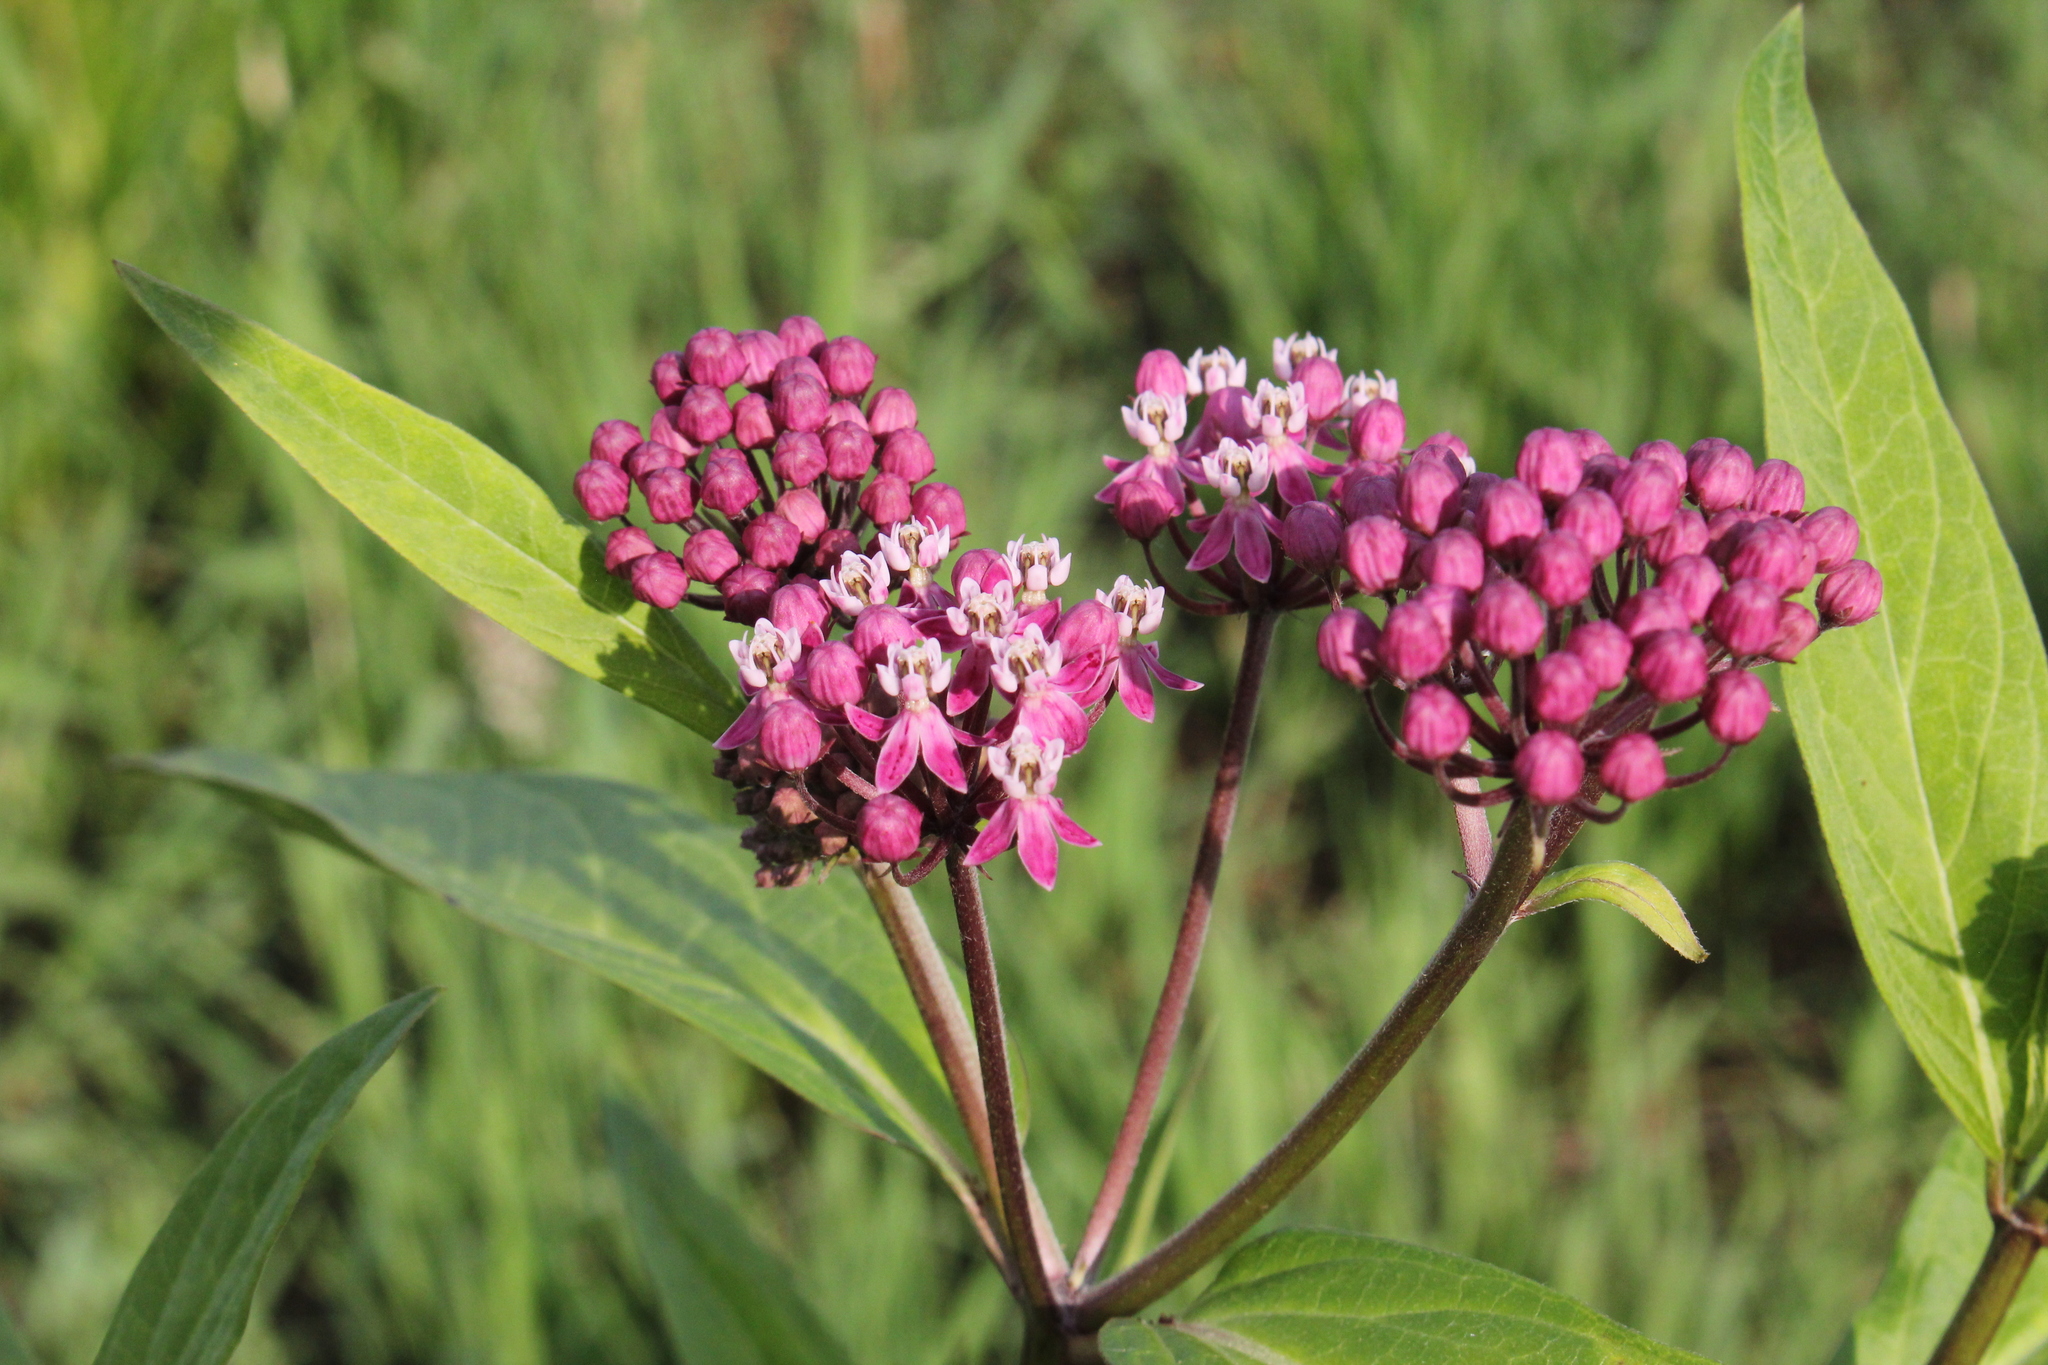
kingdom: Plantae
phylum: Tracheophyta
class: Magnoliopsida
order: Gentianales
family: Apocynaceae
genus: Asclepias
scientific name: Asclepias incarnata
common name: Swamp milkweed
